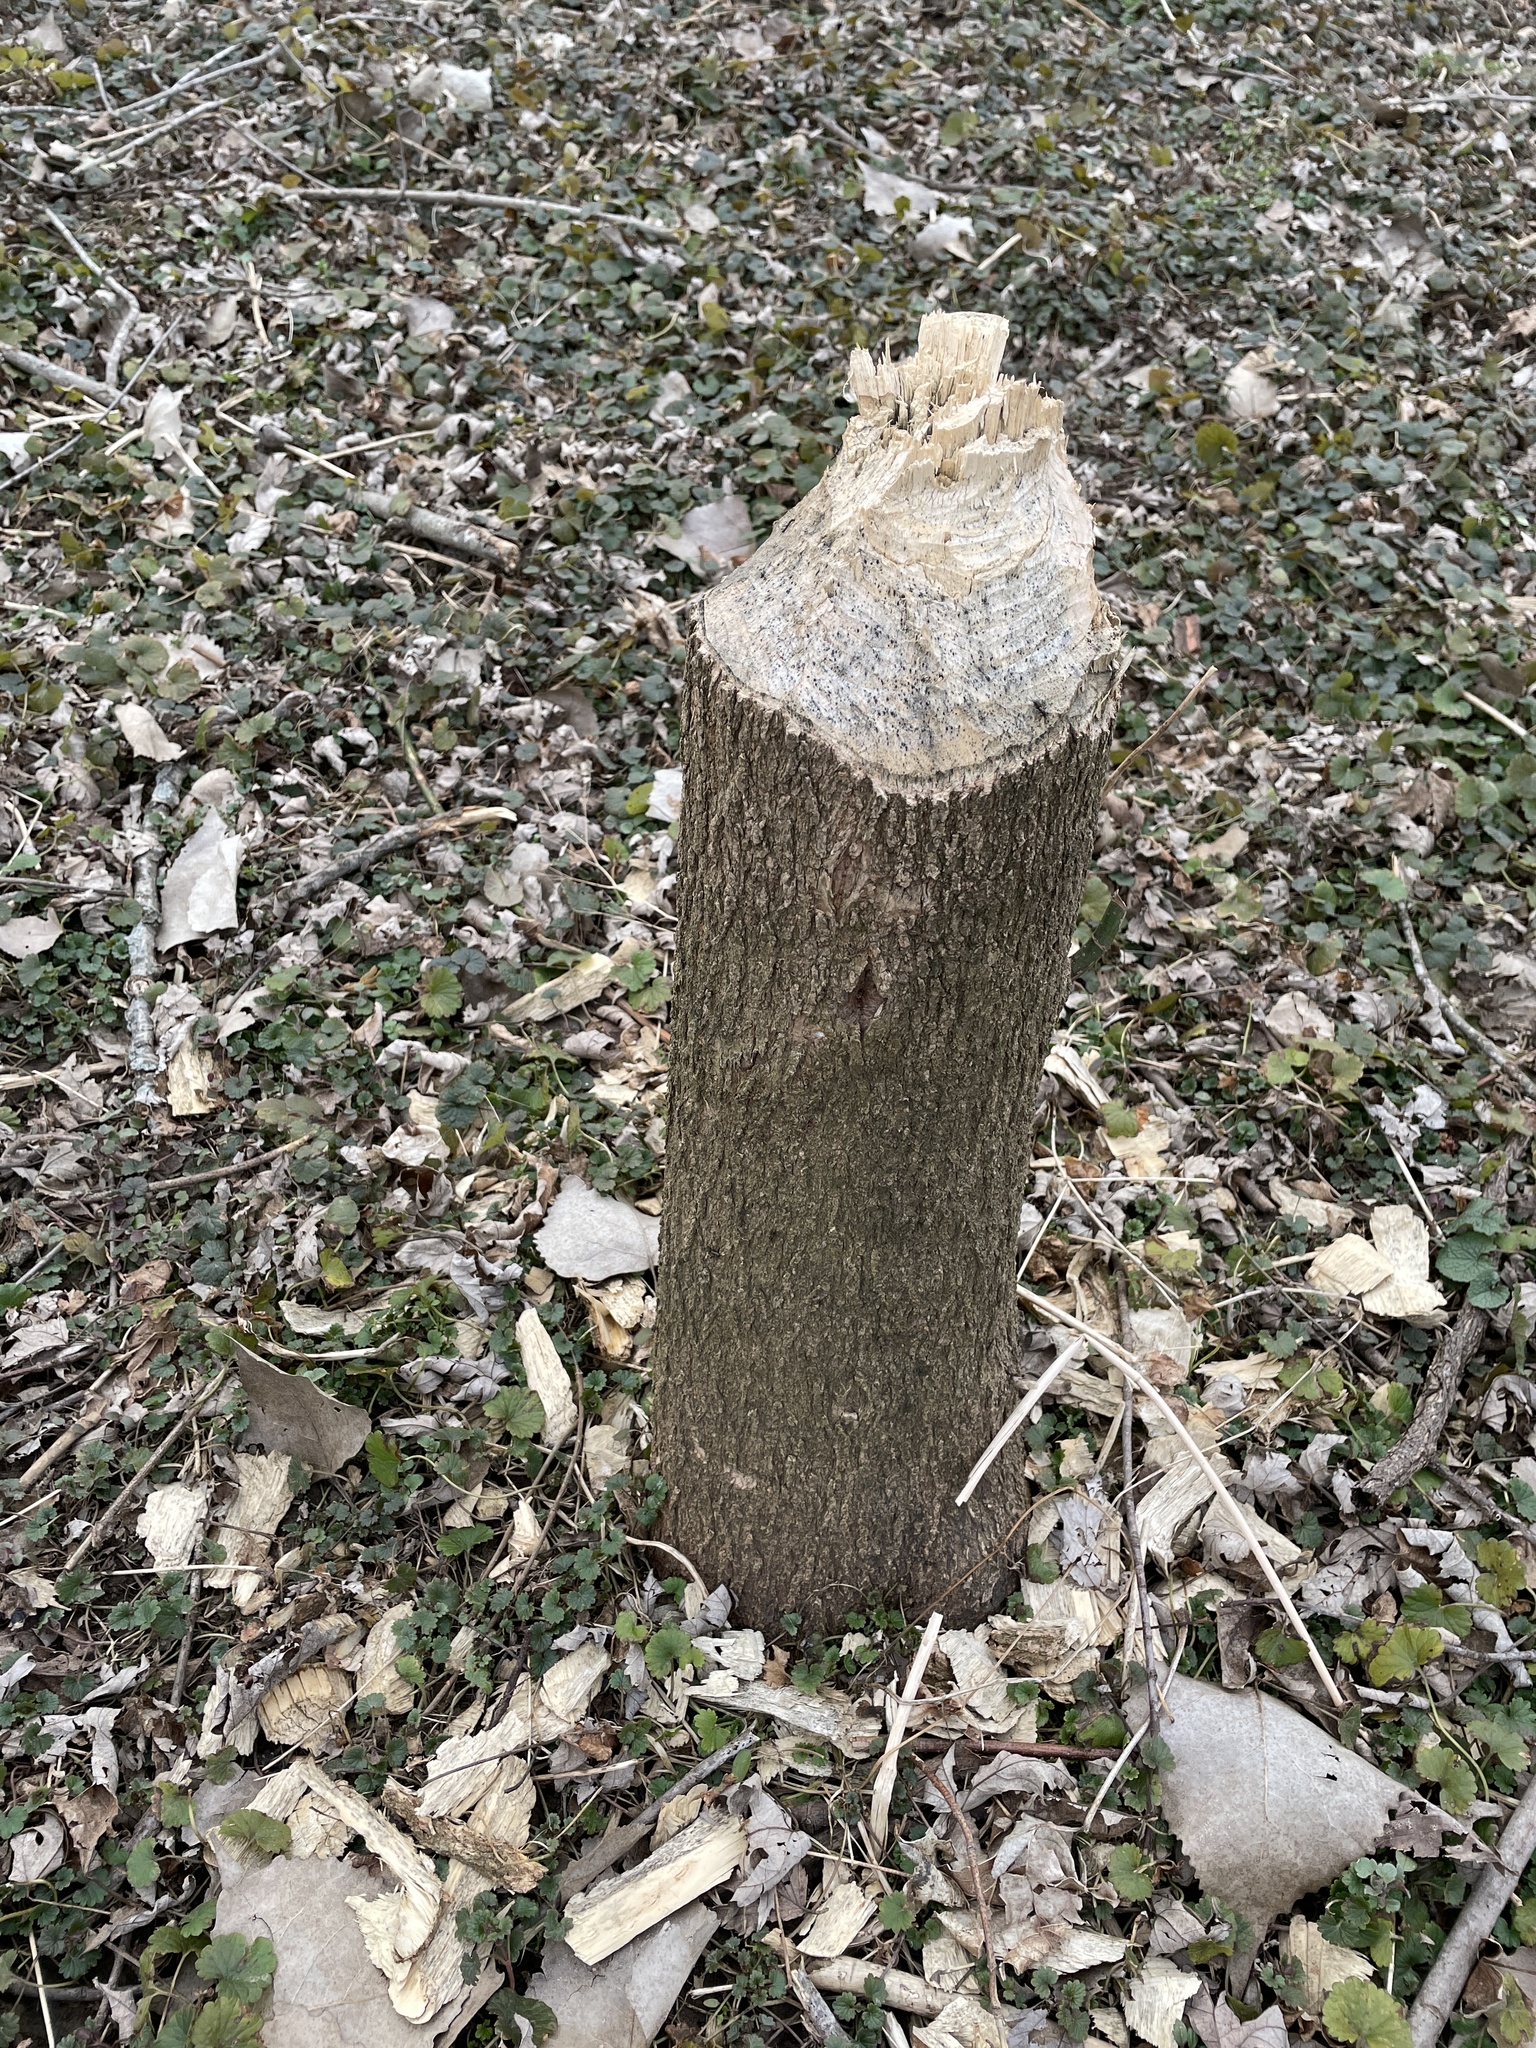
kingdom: Animalia
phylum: Chordata
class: Mammalia
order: Rodentia
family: Castoridae
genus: Castor
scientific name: Castor canadensis
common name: American beaver
